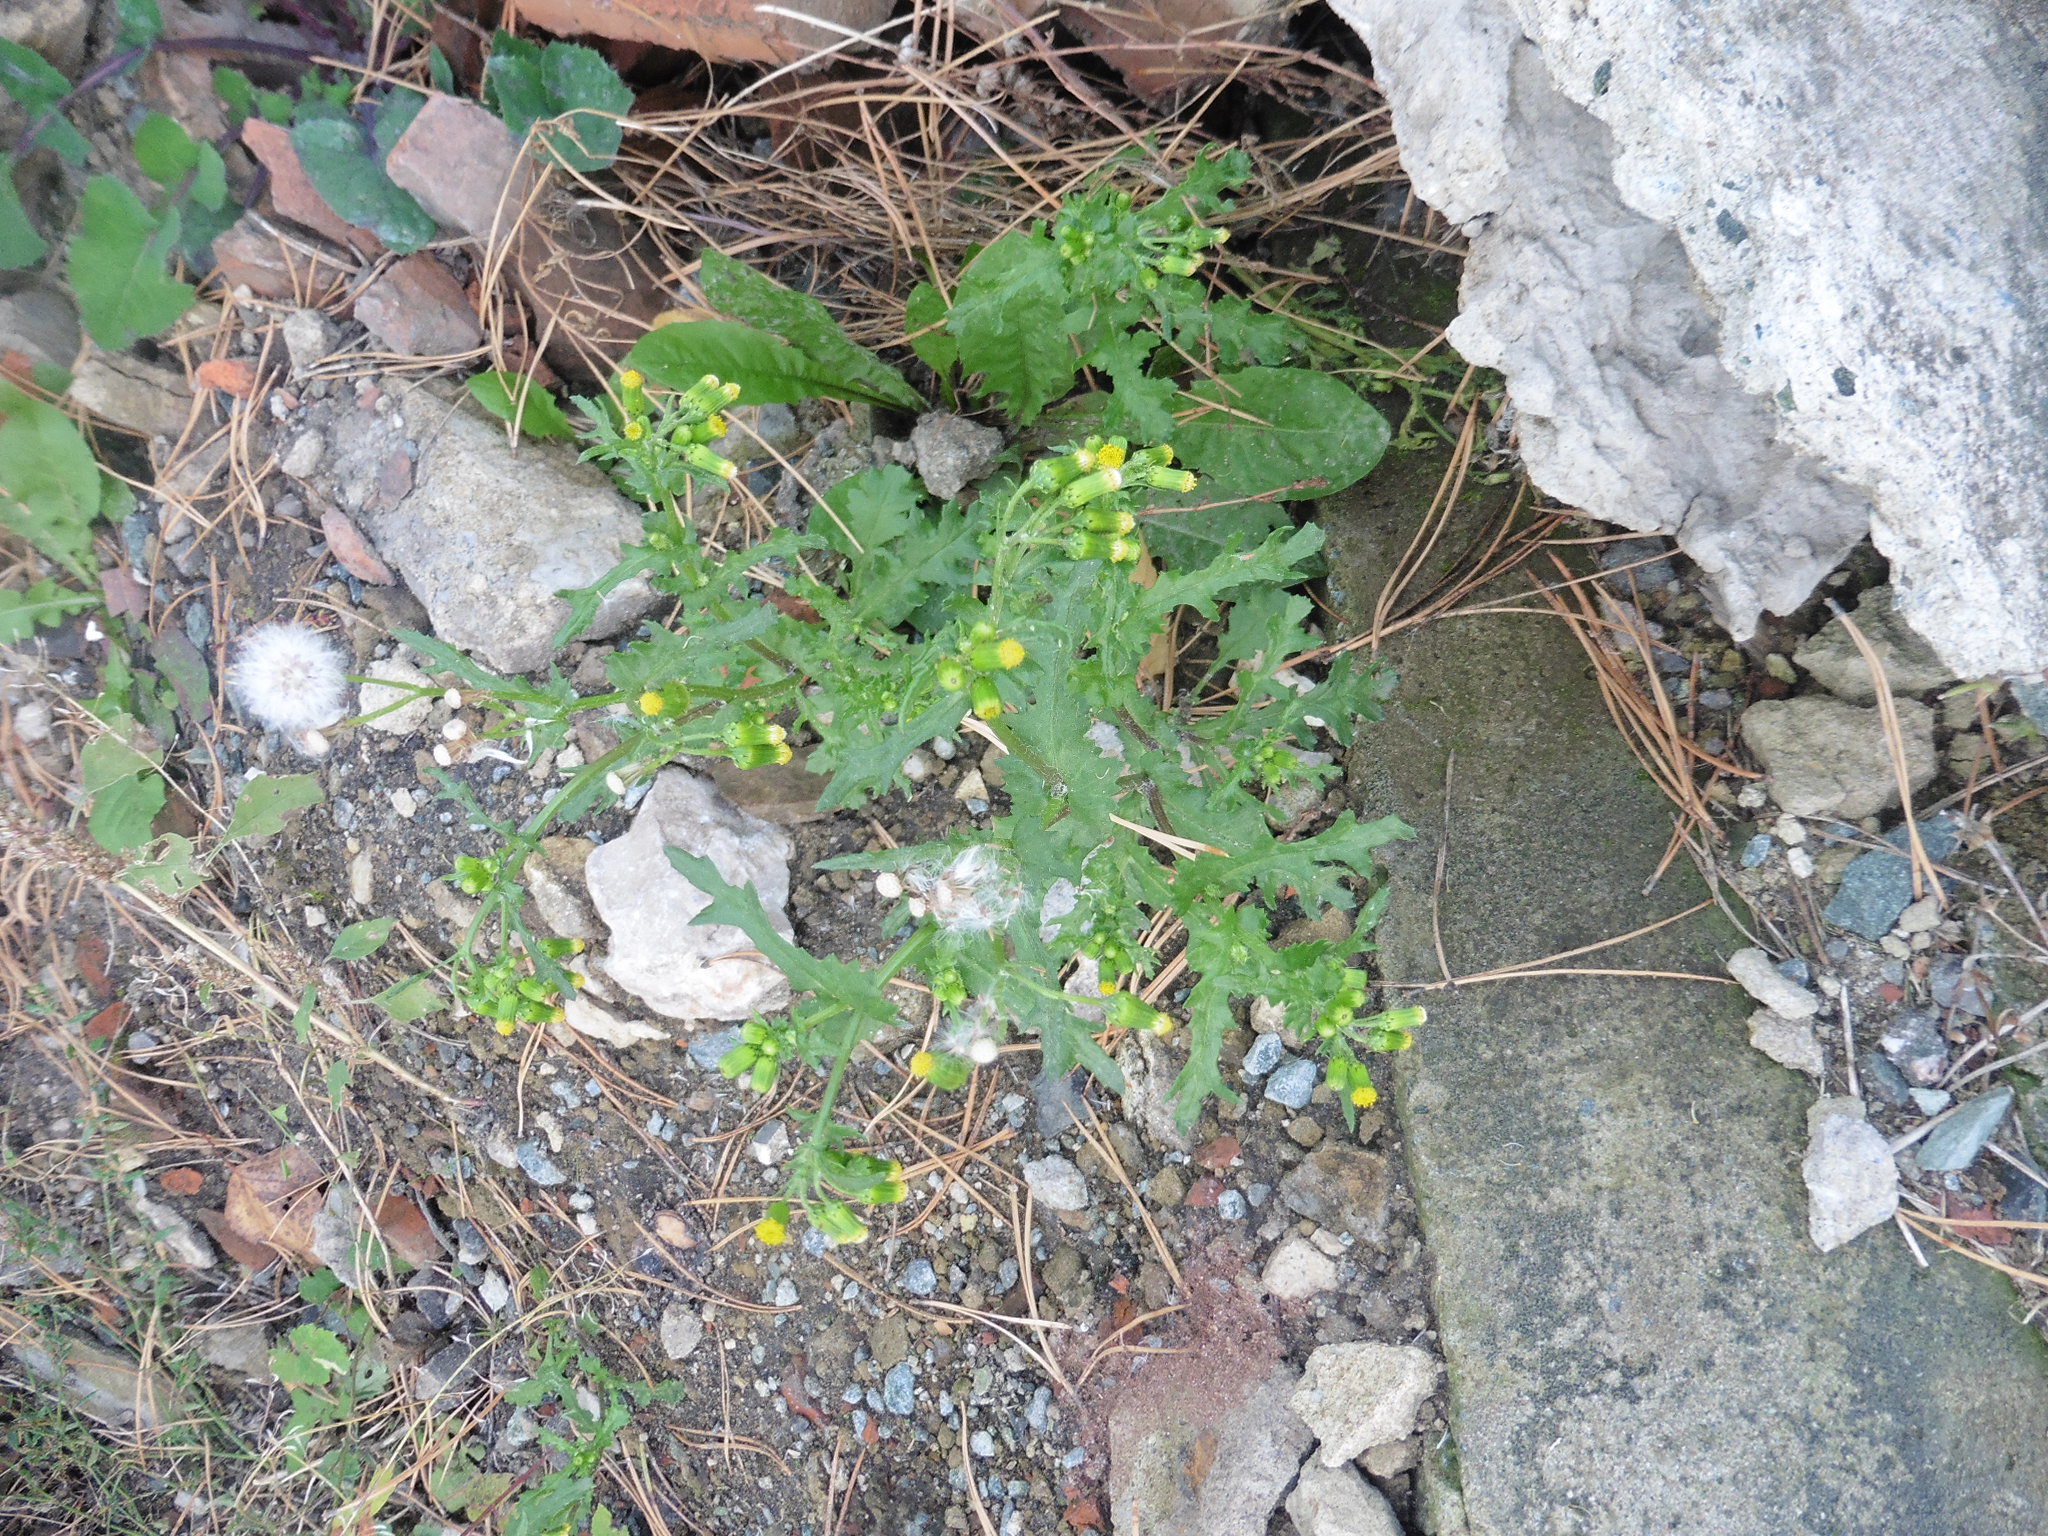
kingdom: Plantae
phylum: Tracheophyta
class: Magnoliopsida
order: Asterales
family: Asteraceae
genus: Senecio
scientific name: Senecio vulgaris
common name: Old-man-in-the-spring
